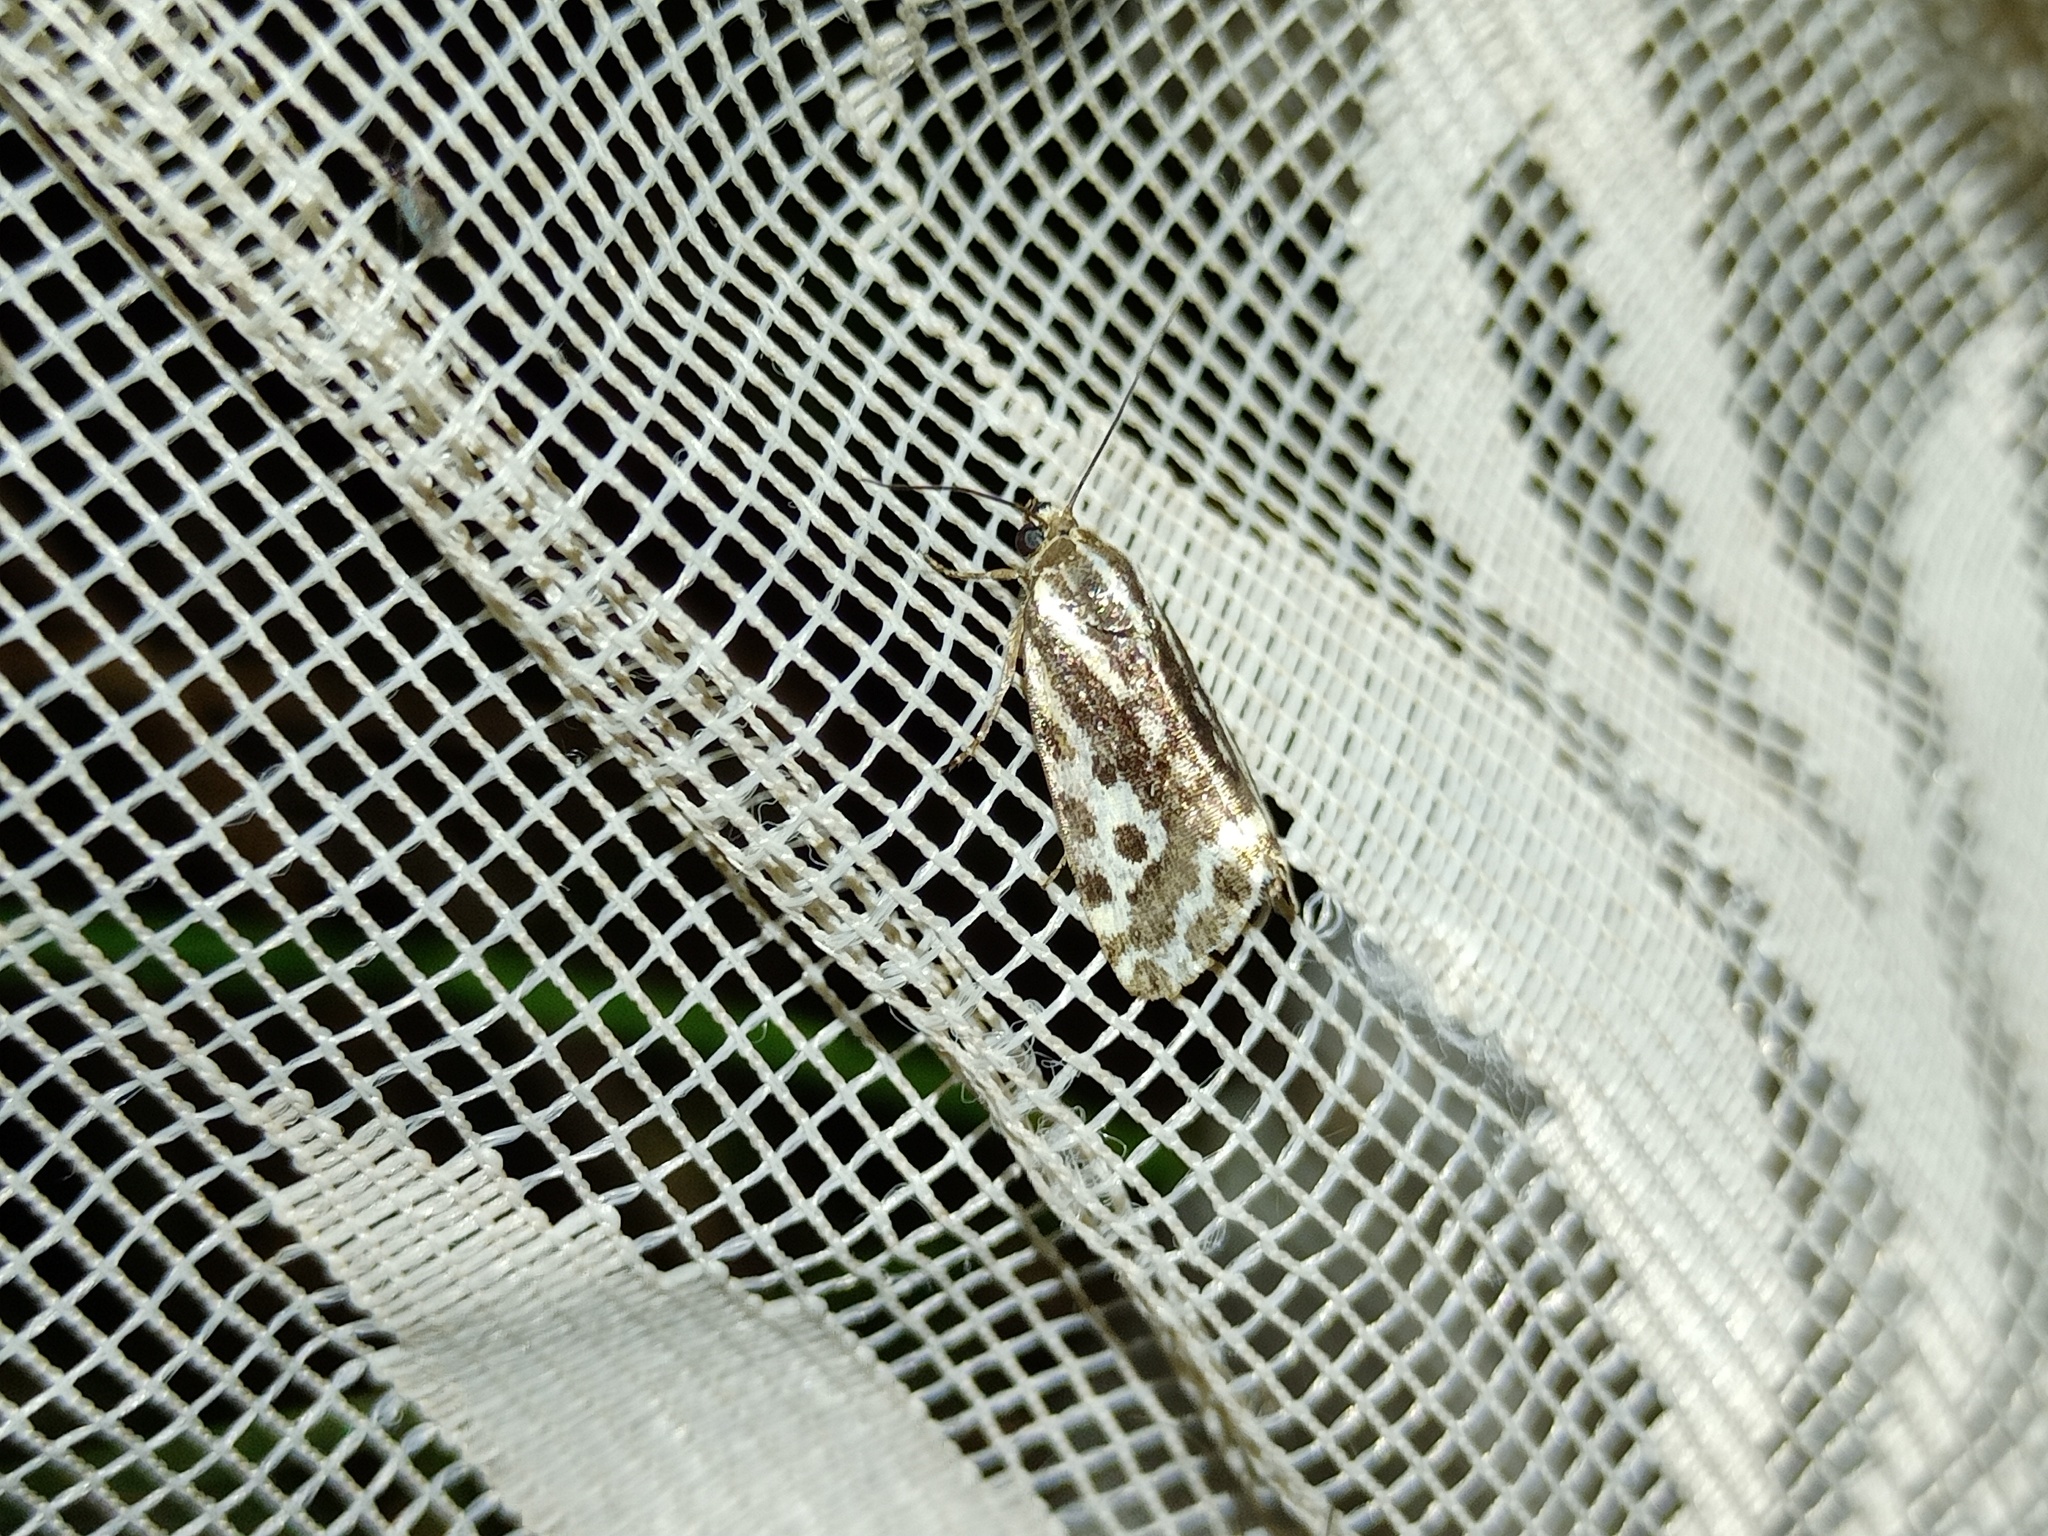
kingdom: Animalia
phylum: Arthropoda
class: Insecta
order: Lepidoptera
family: Noctuidae
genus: Acontia
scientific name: Acontia trabealis
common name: Spotted sulphur
